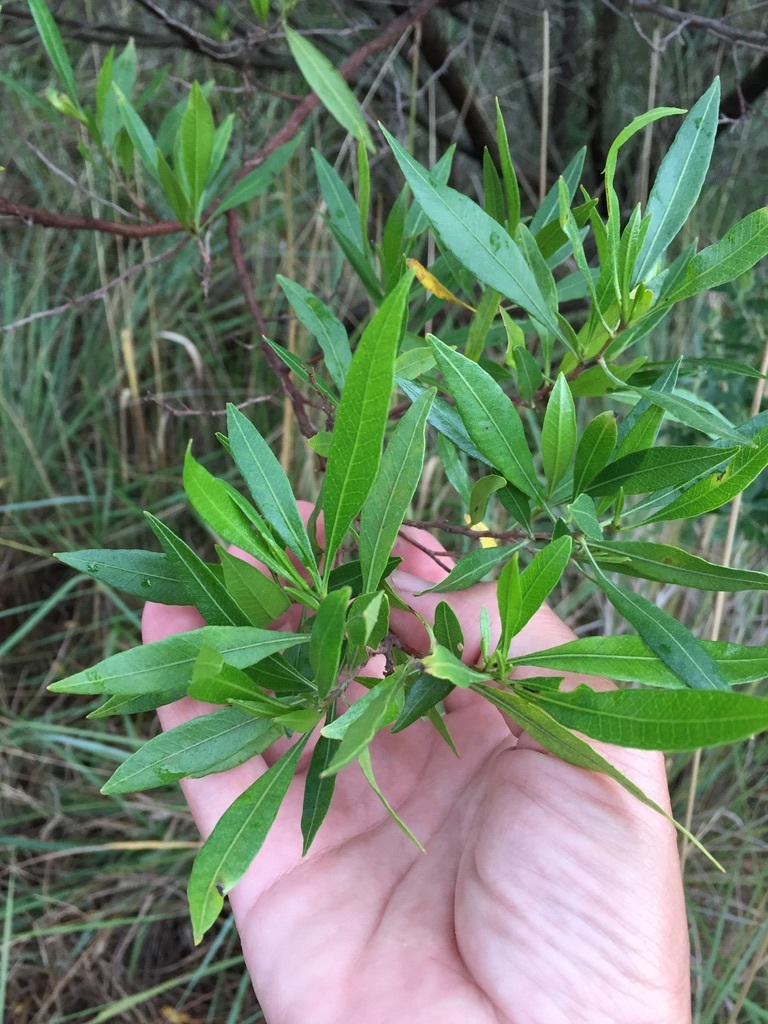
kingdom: Plantae
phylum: Tracheophyta
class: Magnoliopsida
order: Sapindales
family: Sapindaceae
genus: Dodonaea
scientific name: Dodonaea viscosa
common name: Hopbush
